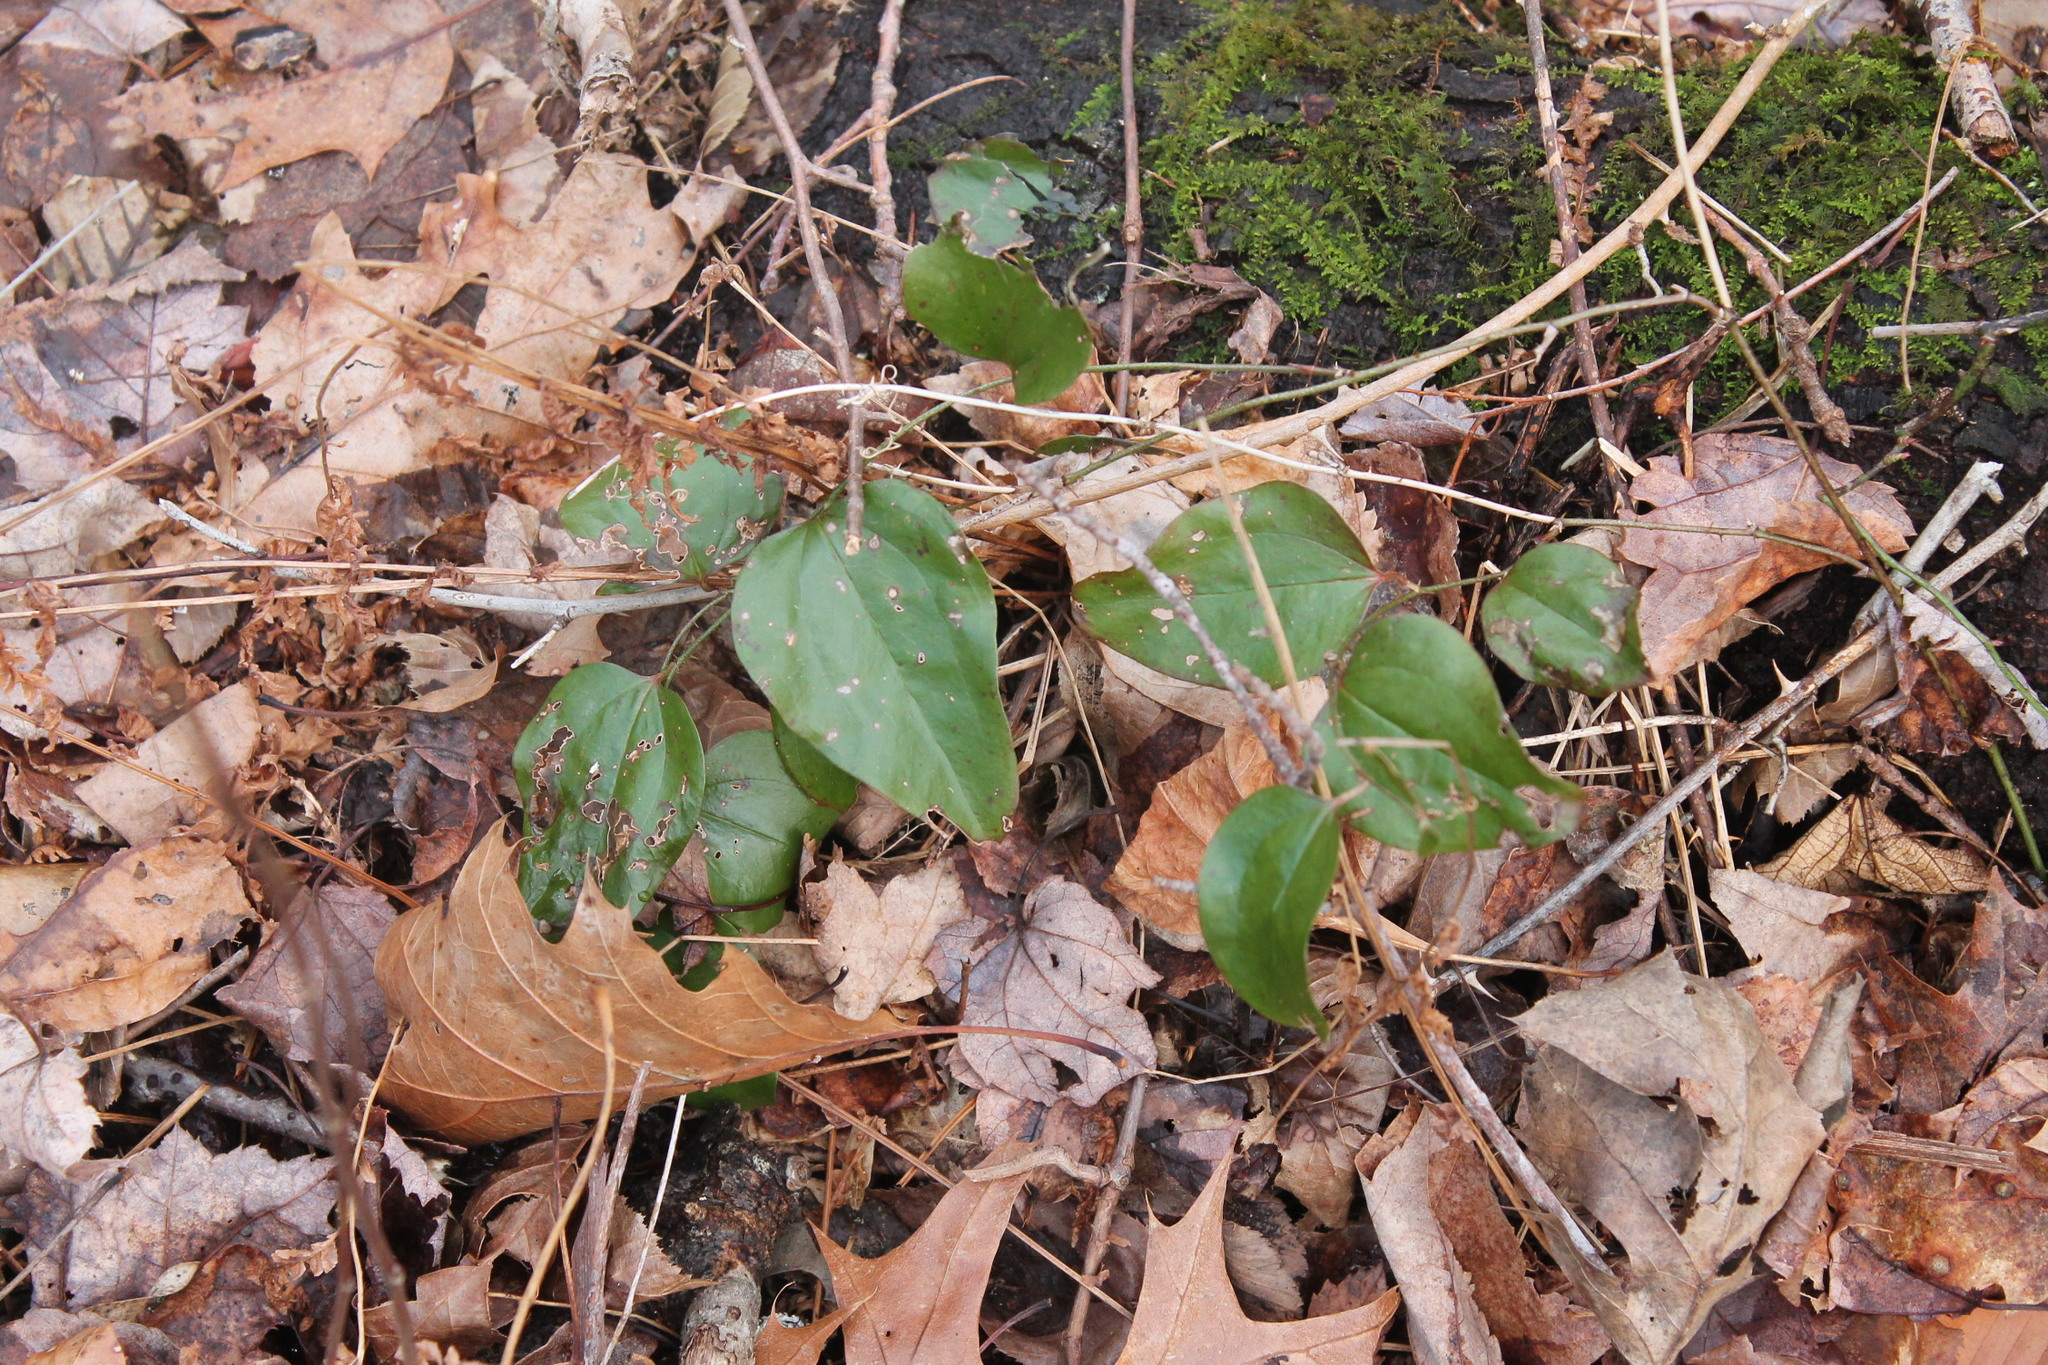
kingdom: Plantae
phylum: Tracheophyta
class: Liliopsida
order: Liliales
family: Smilacaceae
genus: Smilax
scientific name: Smilax glauca
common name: Cat greenbrier
